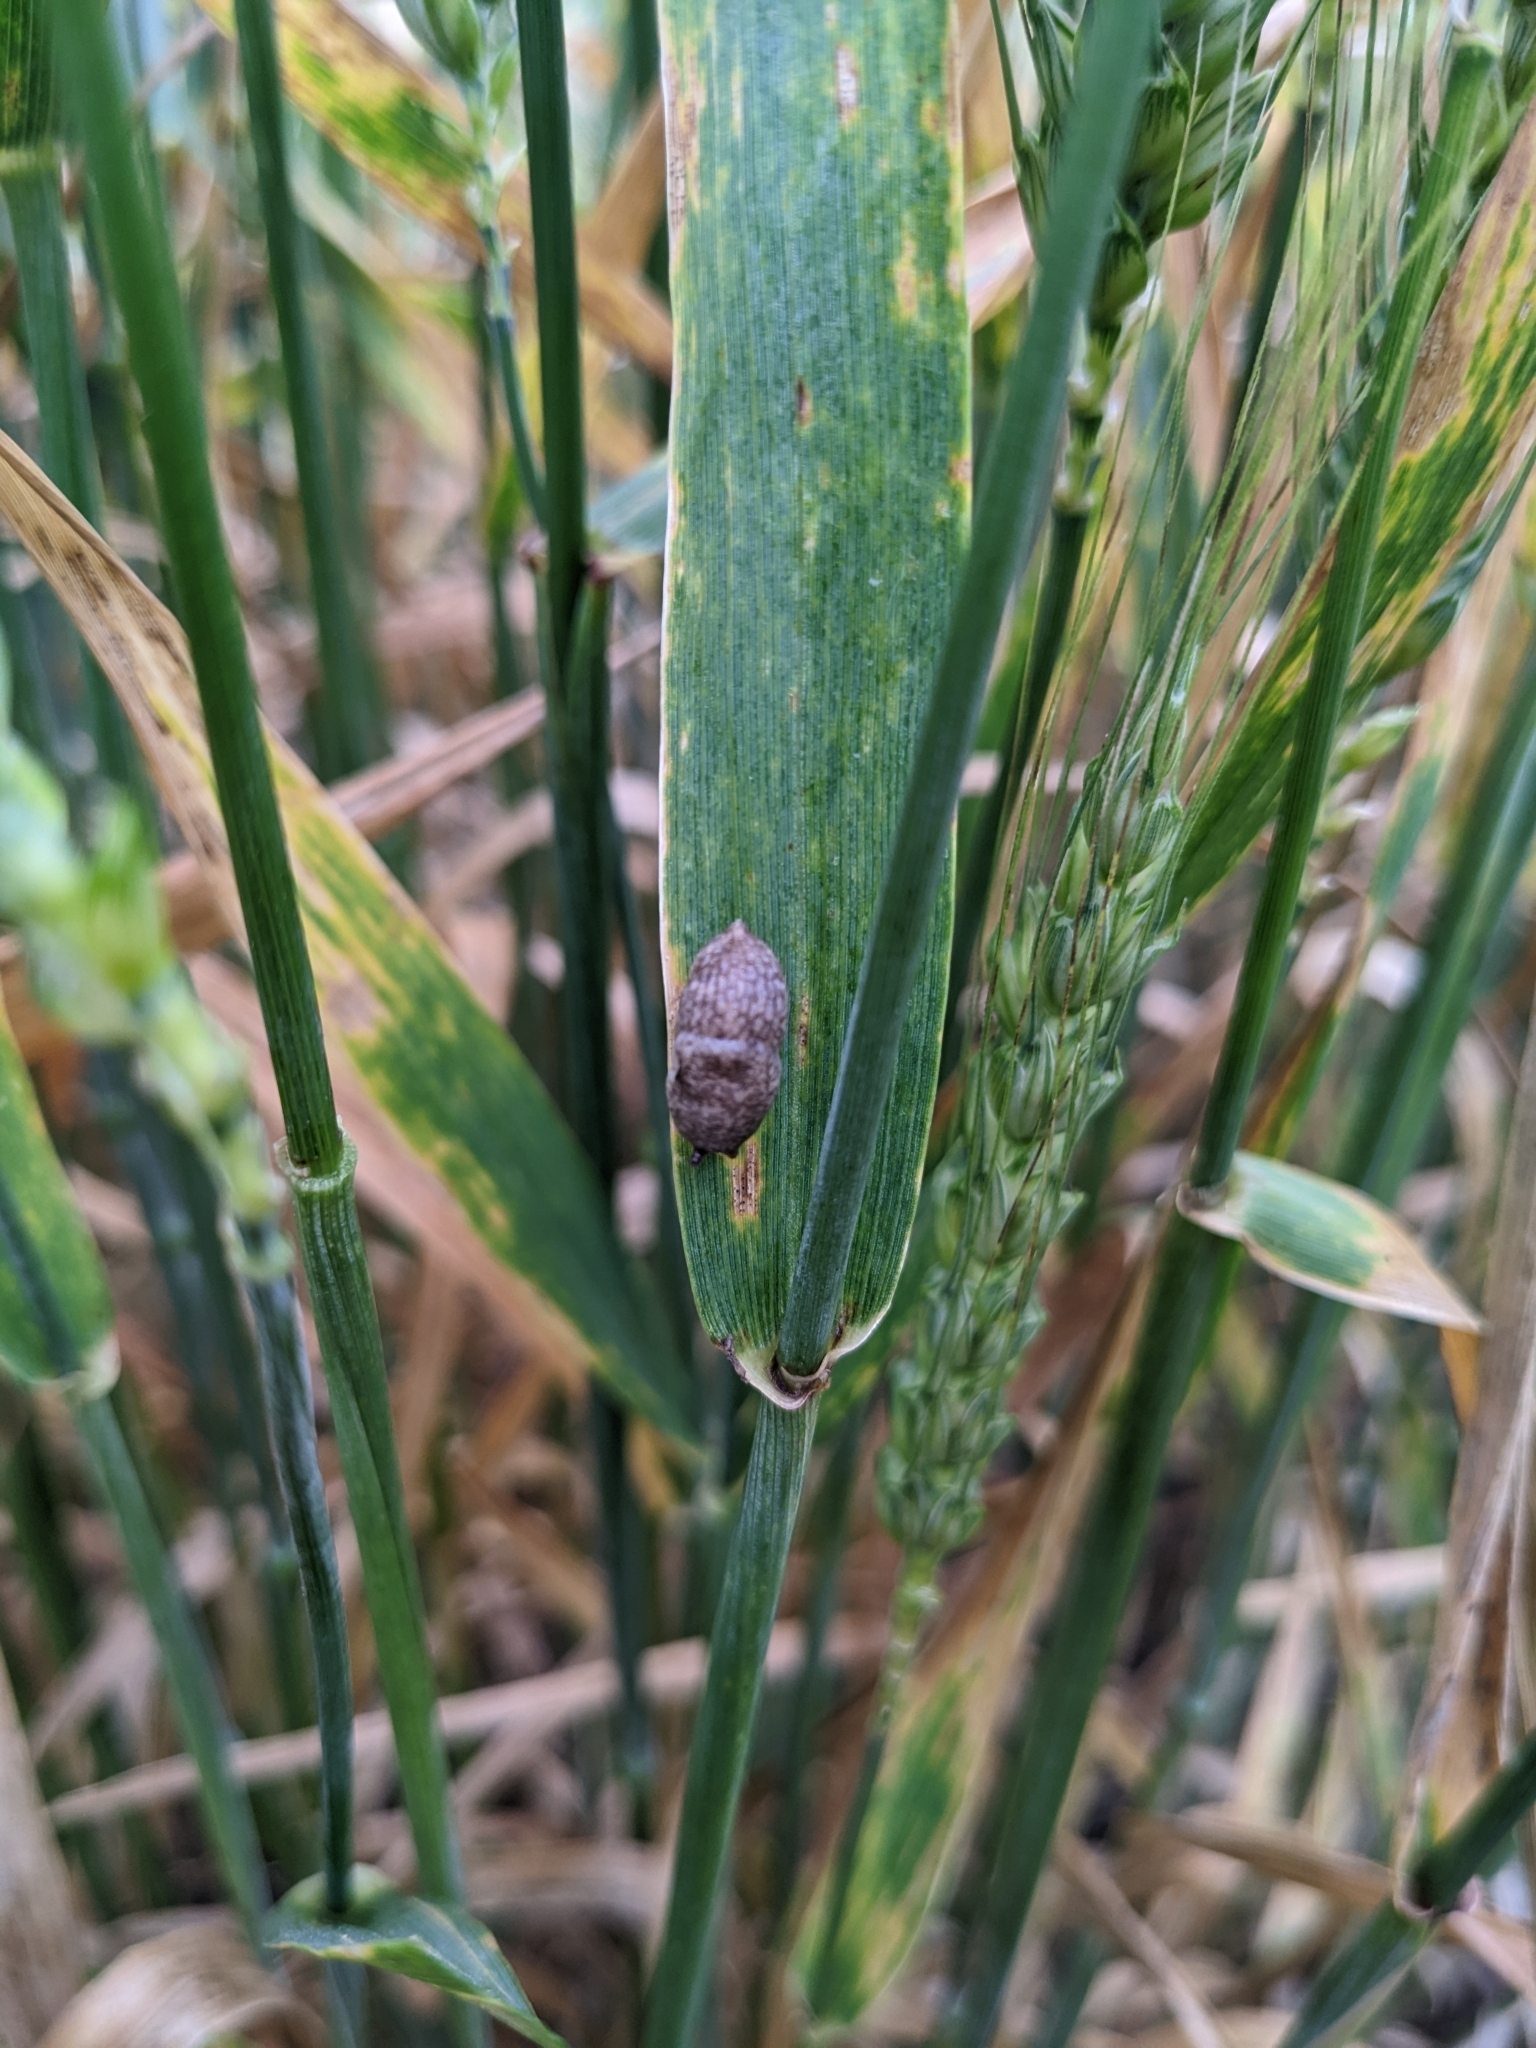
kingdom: Animalia
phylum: Mollusca
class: Gastropoda
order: Stylommatophora
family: Agriolimacidae
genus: Deroceras
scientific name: Deroceras reticulatum
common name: Gray field slug
